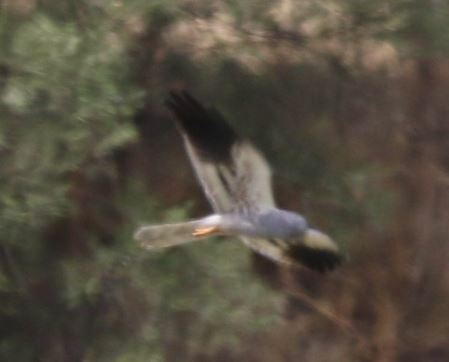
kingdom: Animalia
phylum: Chordata
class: Aves
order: Accipitriformes
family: Accipitridae
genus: Circus
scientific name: Circus pygargus
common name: Montagu's harrier
